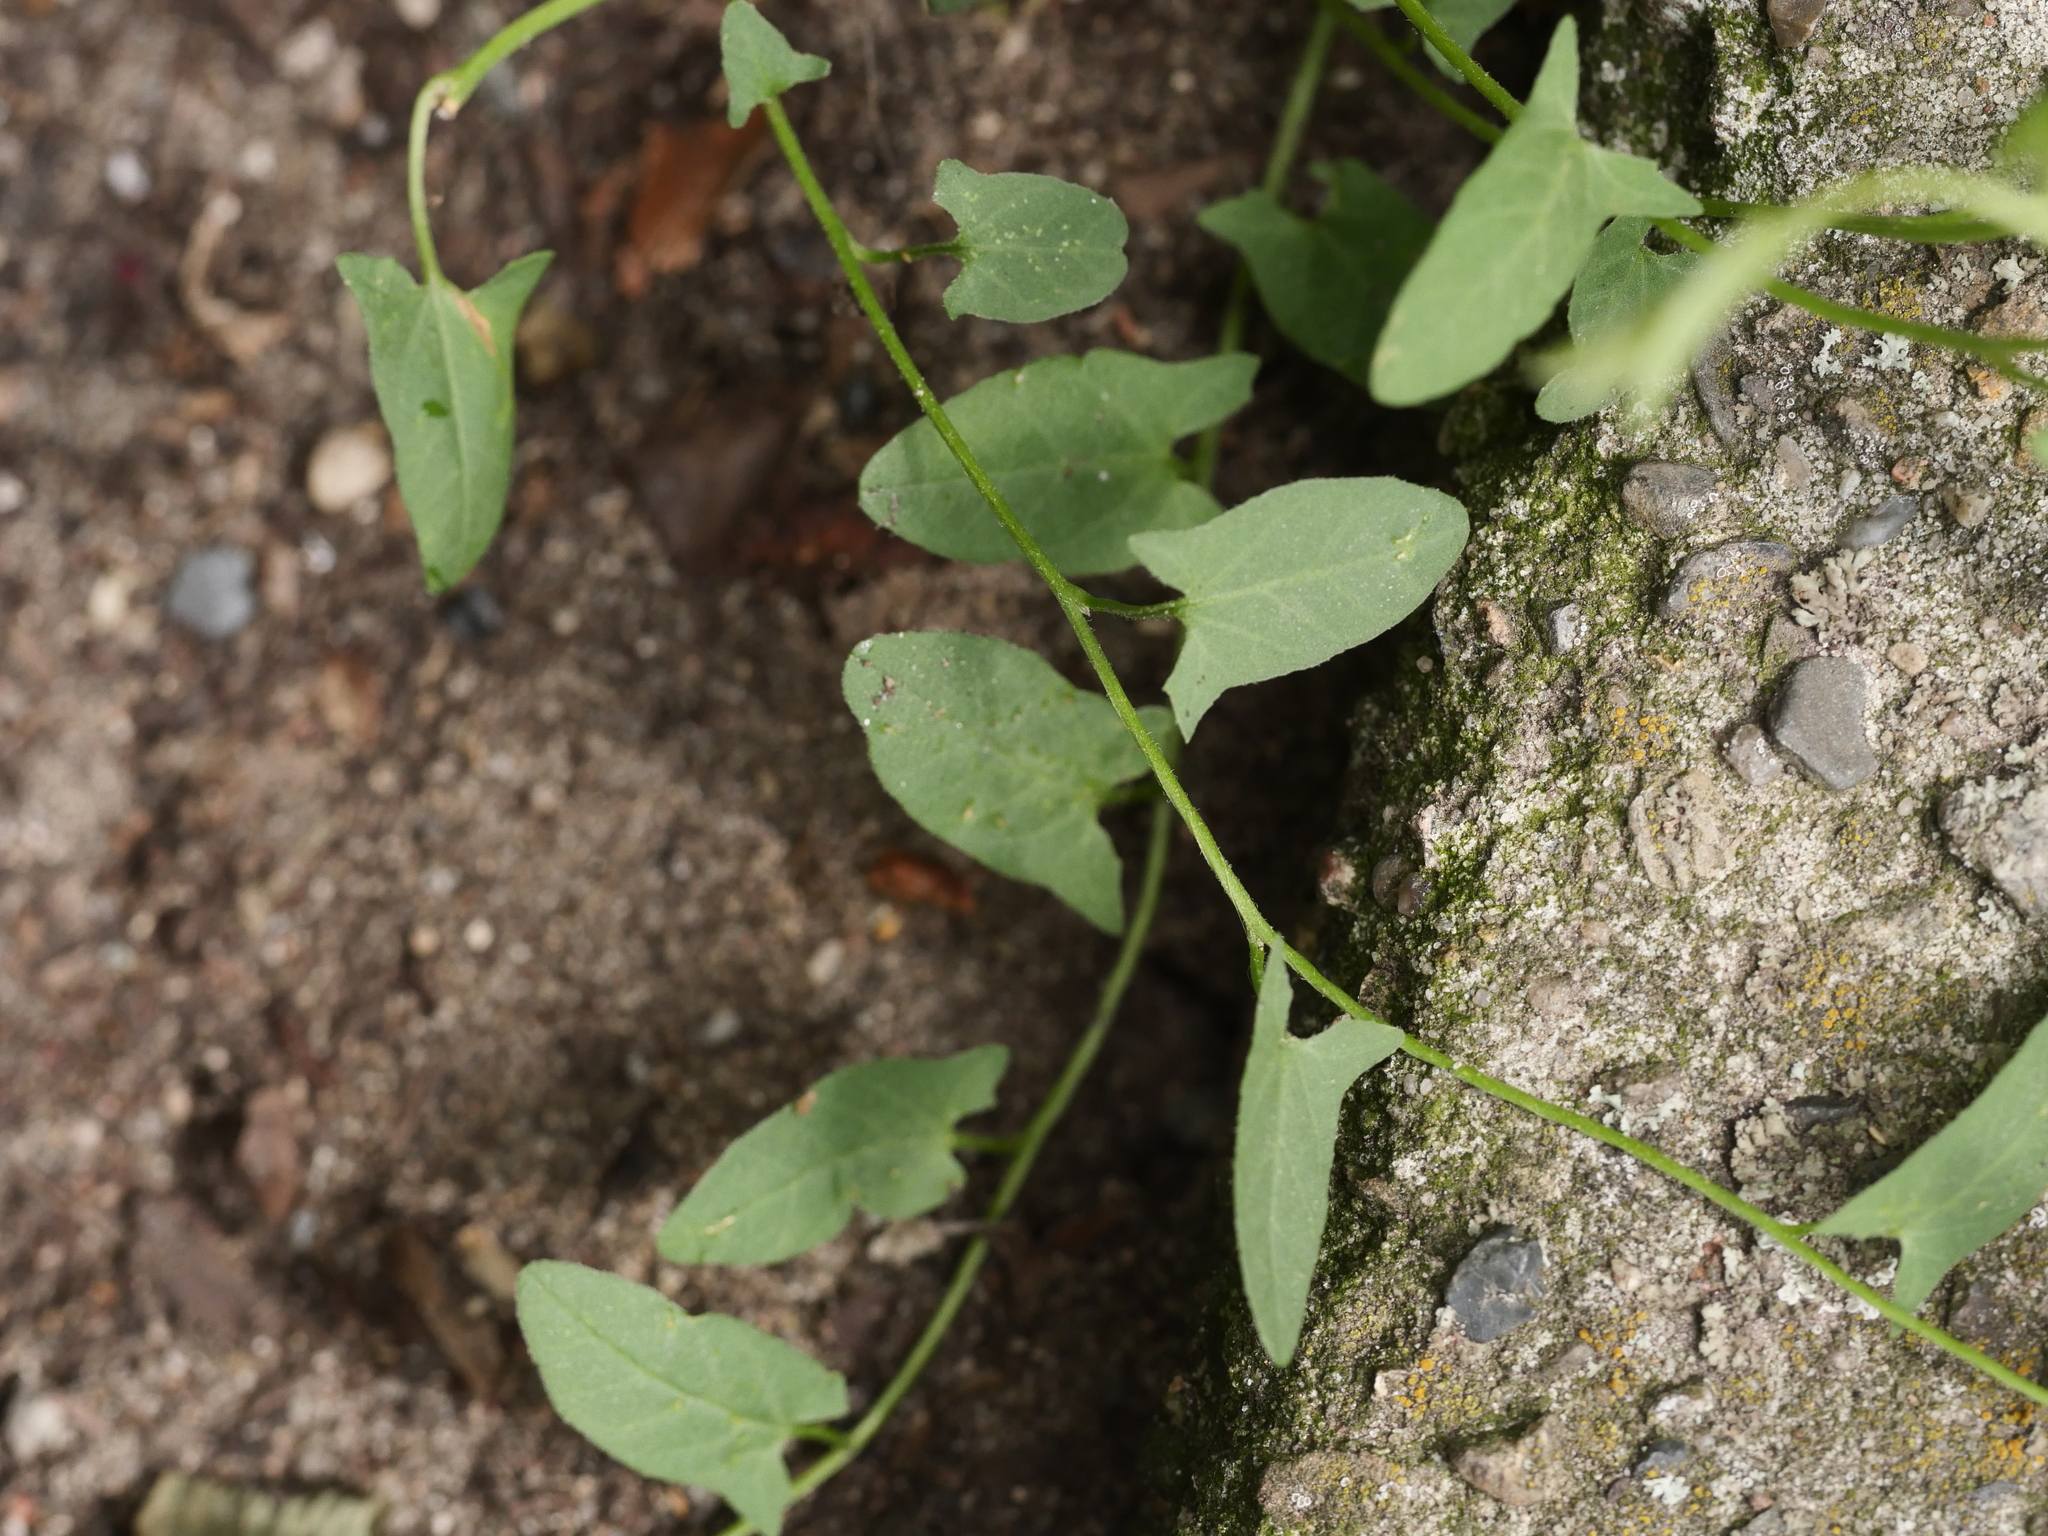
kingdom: Plantae
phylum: Tracheophyta
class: Magnoliopsida
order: Solanales
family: Convolvulaceae
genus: Convolvulus
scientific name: Convolvulus arvensis
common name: Field bindweed
